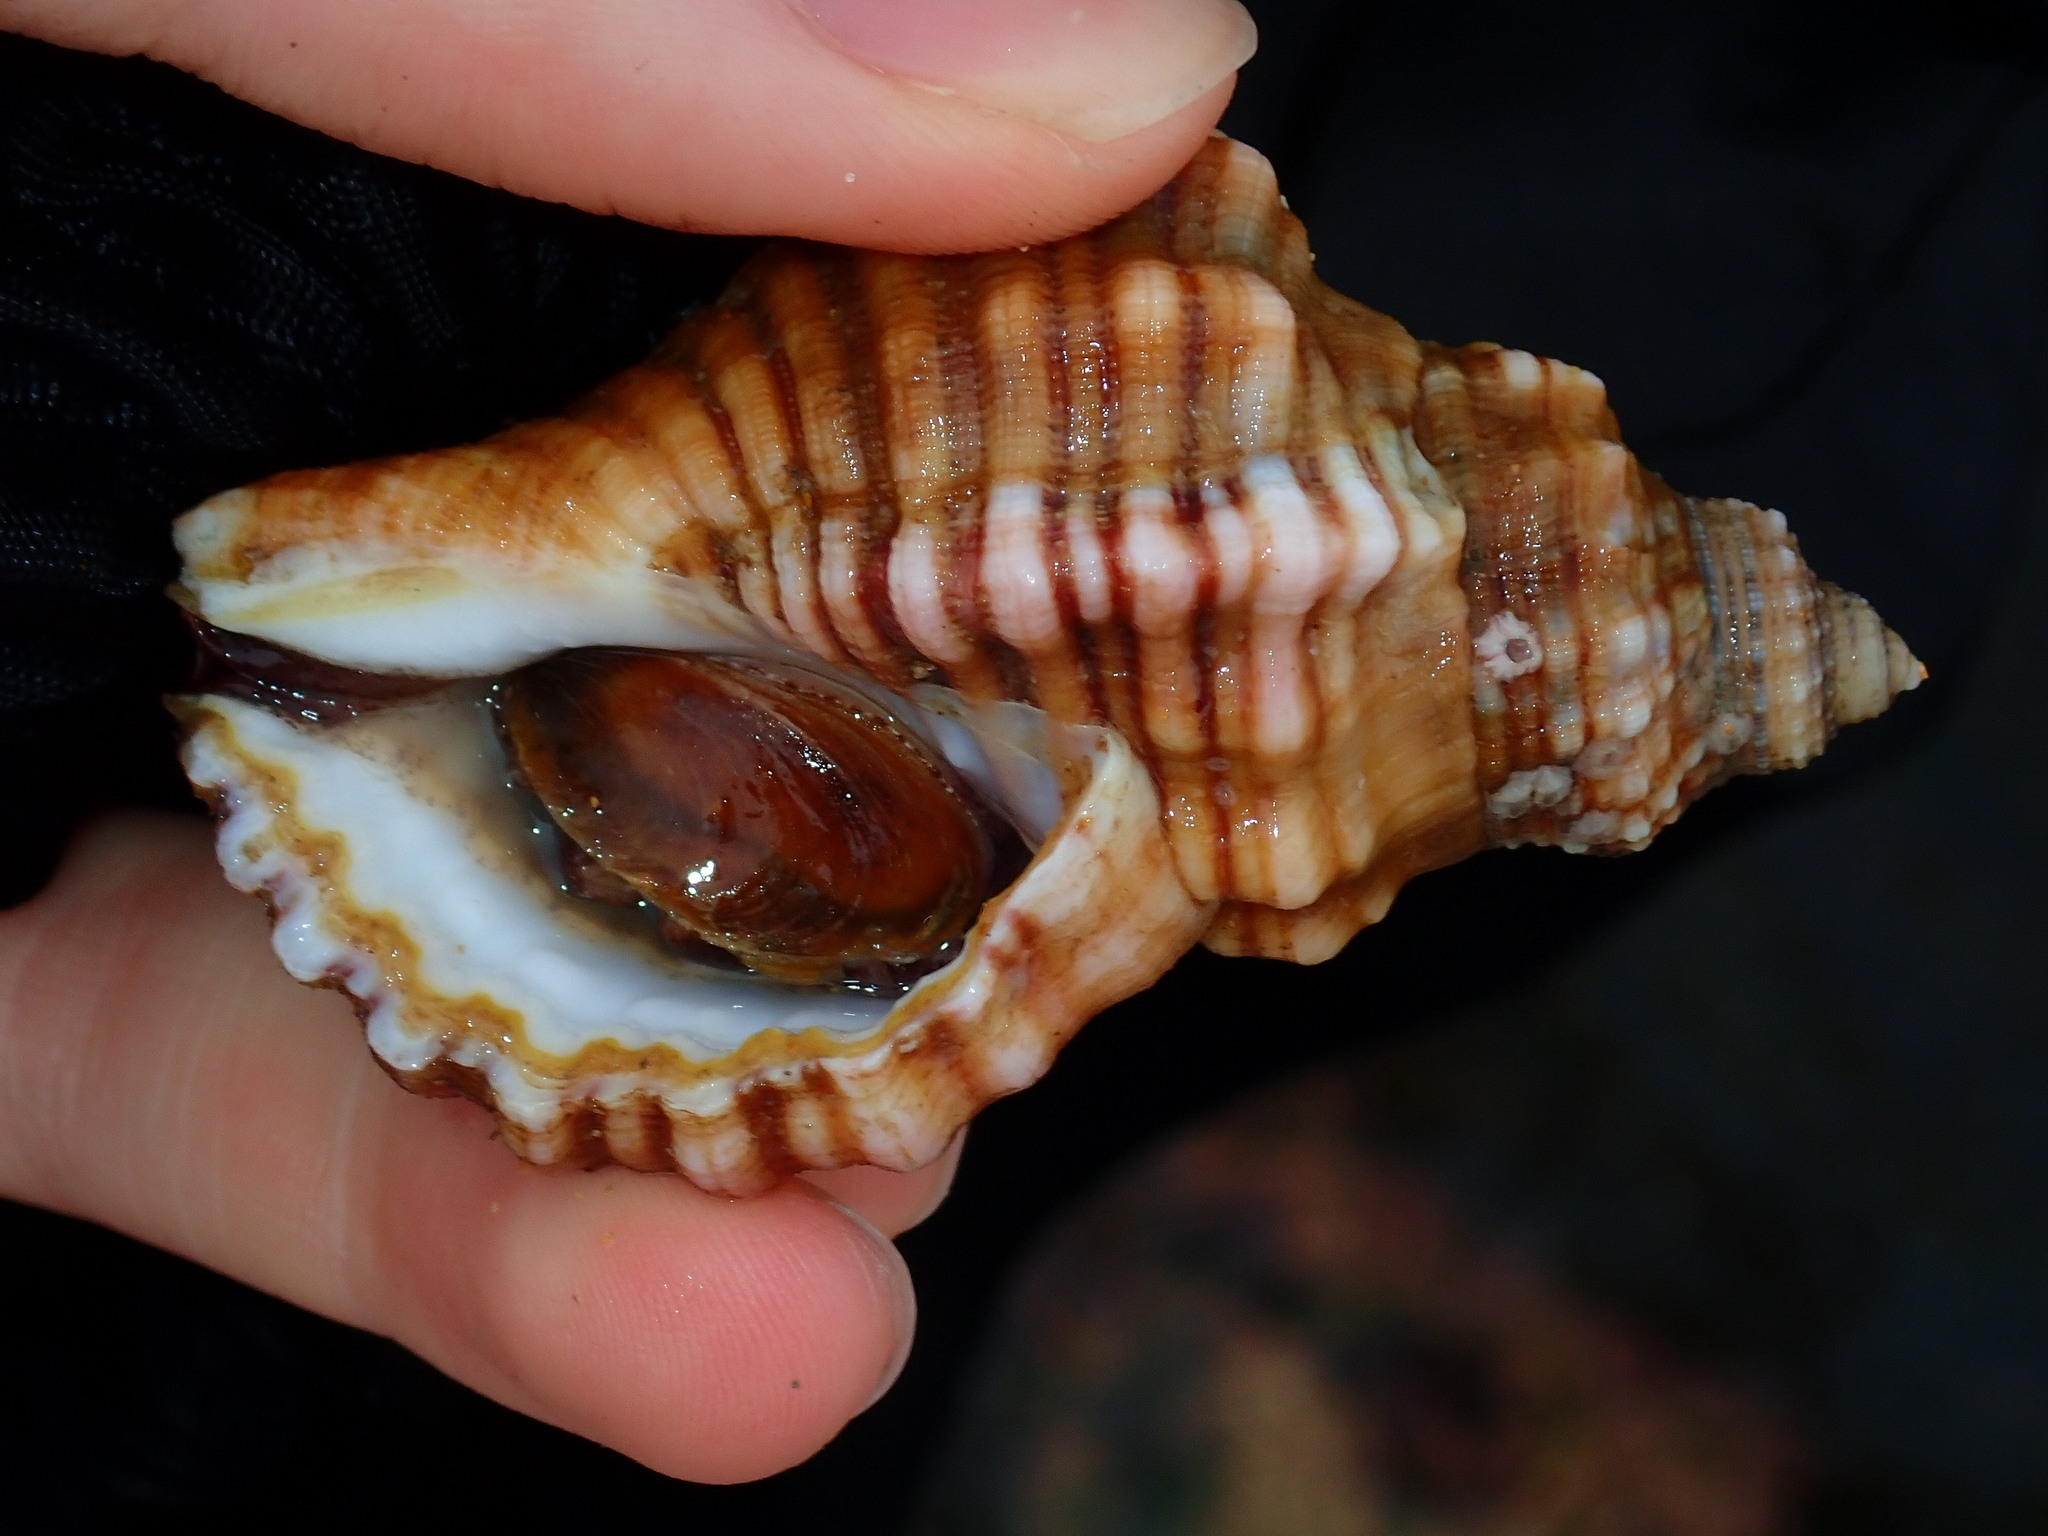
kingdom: Animalia
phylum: Mollusca
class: Gastropoda
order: Littorinimorpha
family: Cymatiidae
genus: Cabestana
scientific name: Cabestana spengleri
